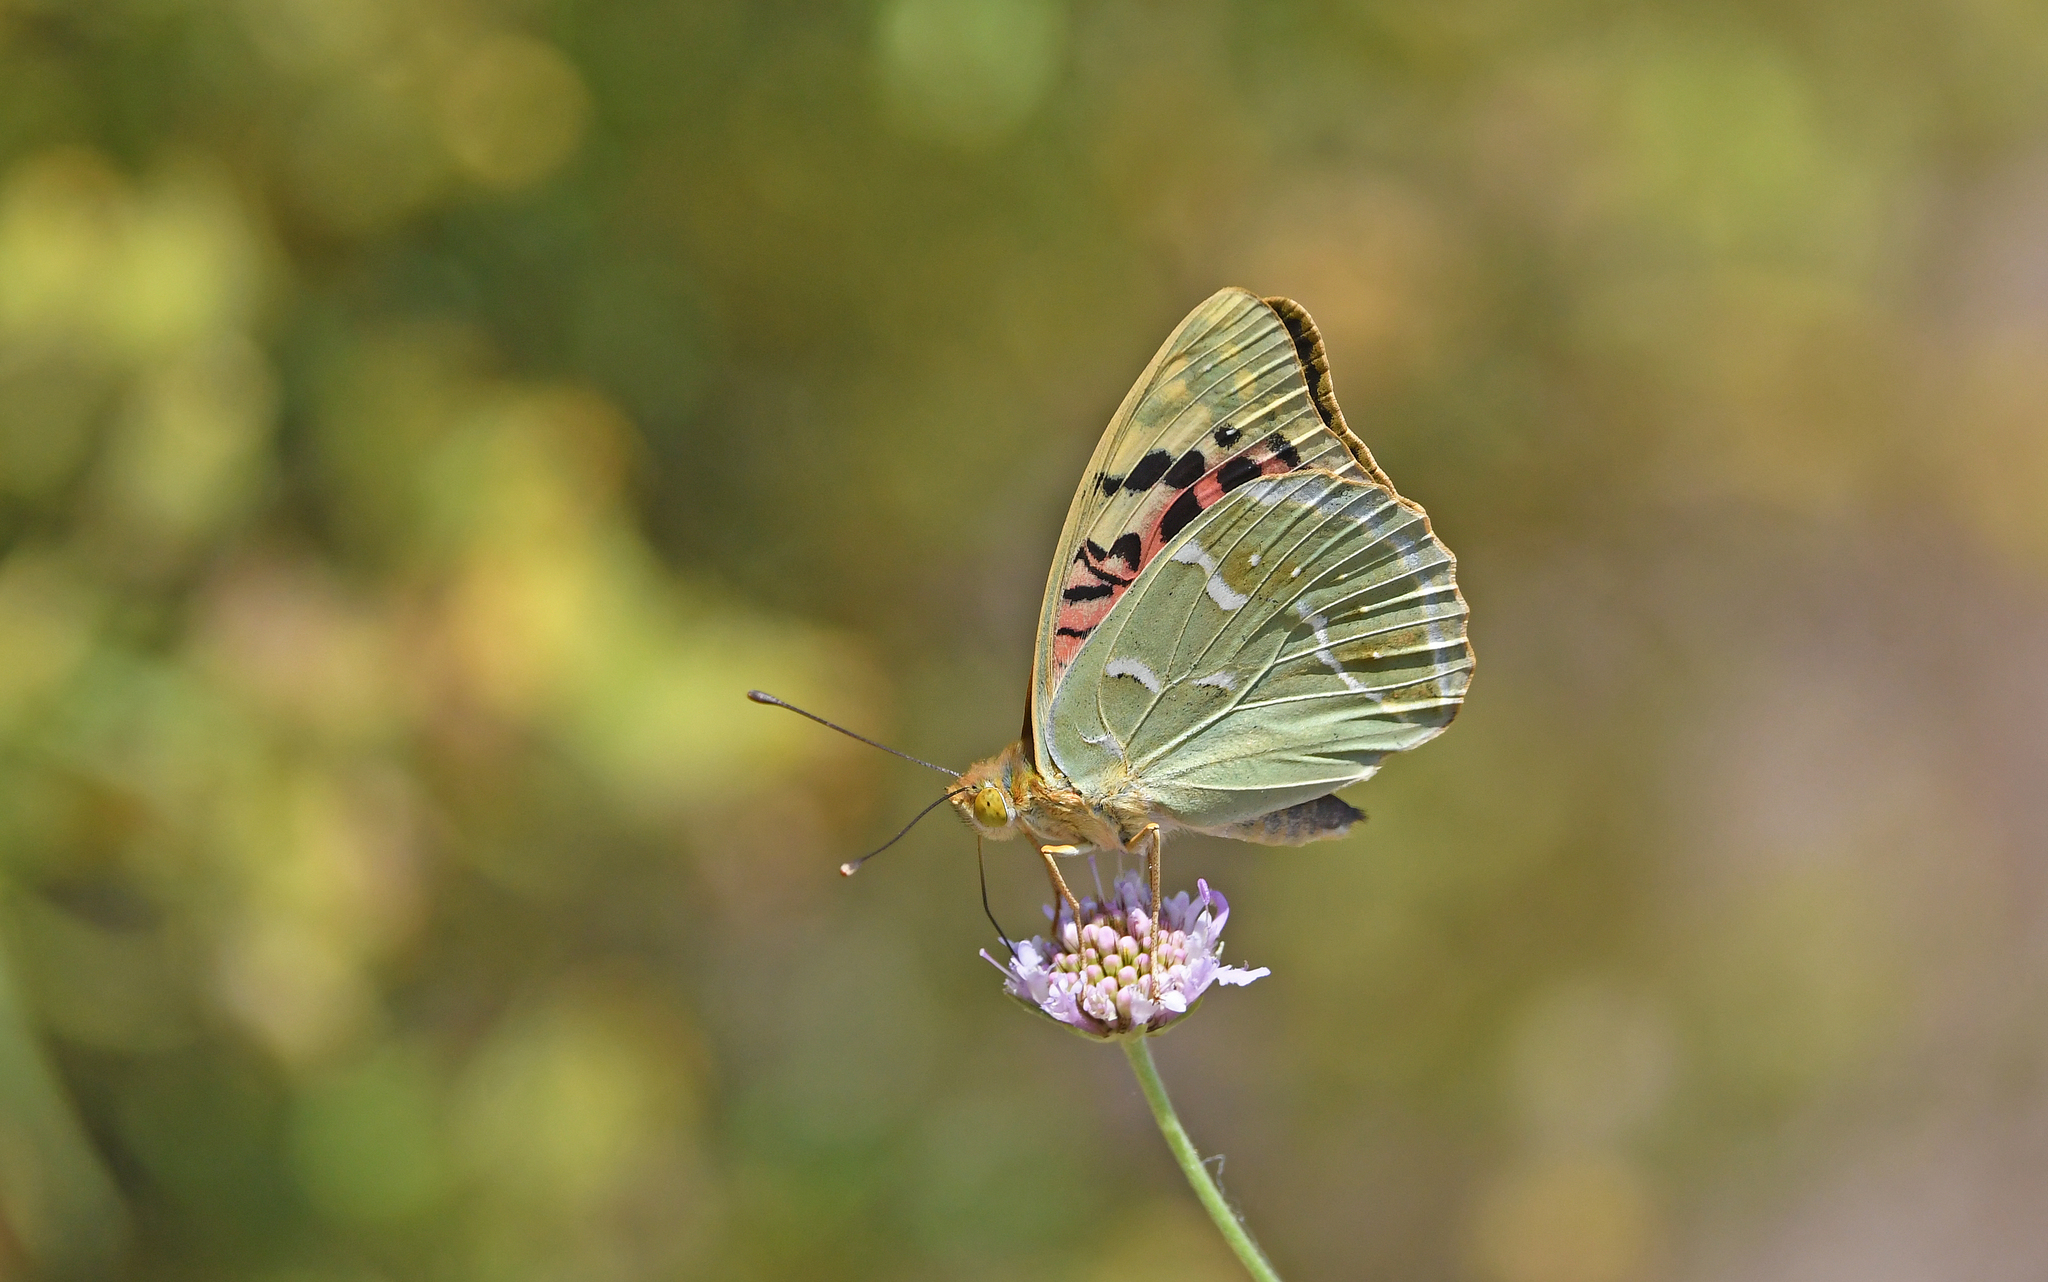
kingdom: Animalia
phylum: Arthropoda
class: Insecta
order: Lepidoptera
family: Nymphalidae
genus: Damora
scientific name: Damora pandora
